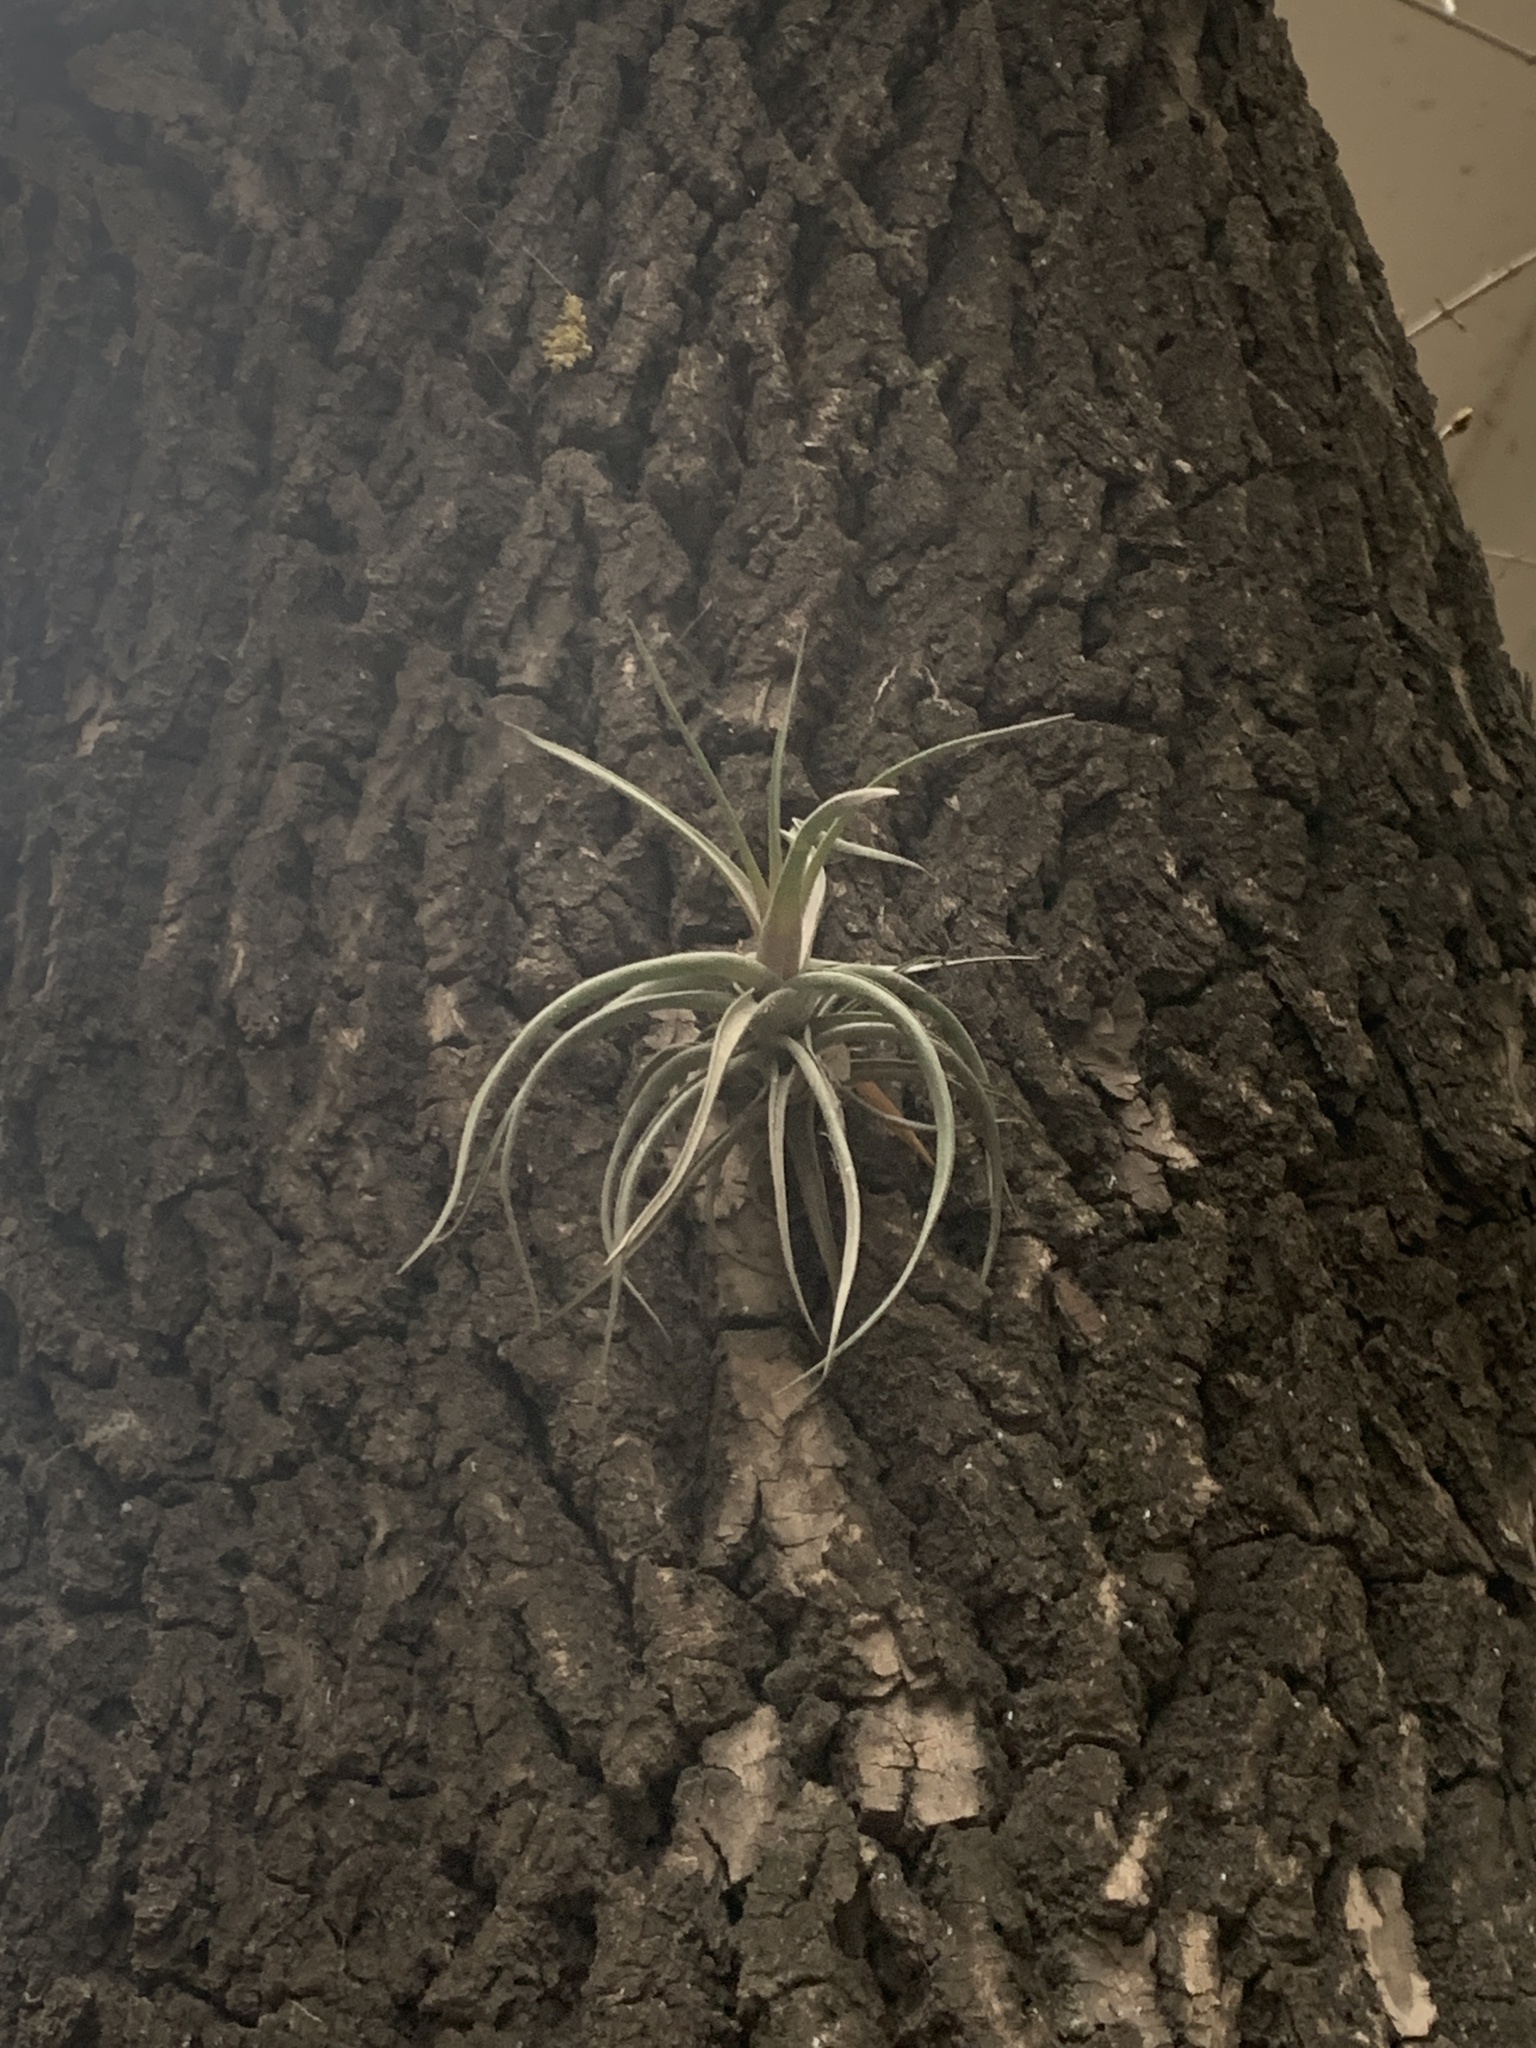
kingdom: Plantae
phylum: Tracheophyta
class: Liliopsida
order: Poales
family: Bromeliaceae
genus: Tillandsia
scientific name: Tillandsia aeranthos
